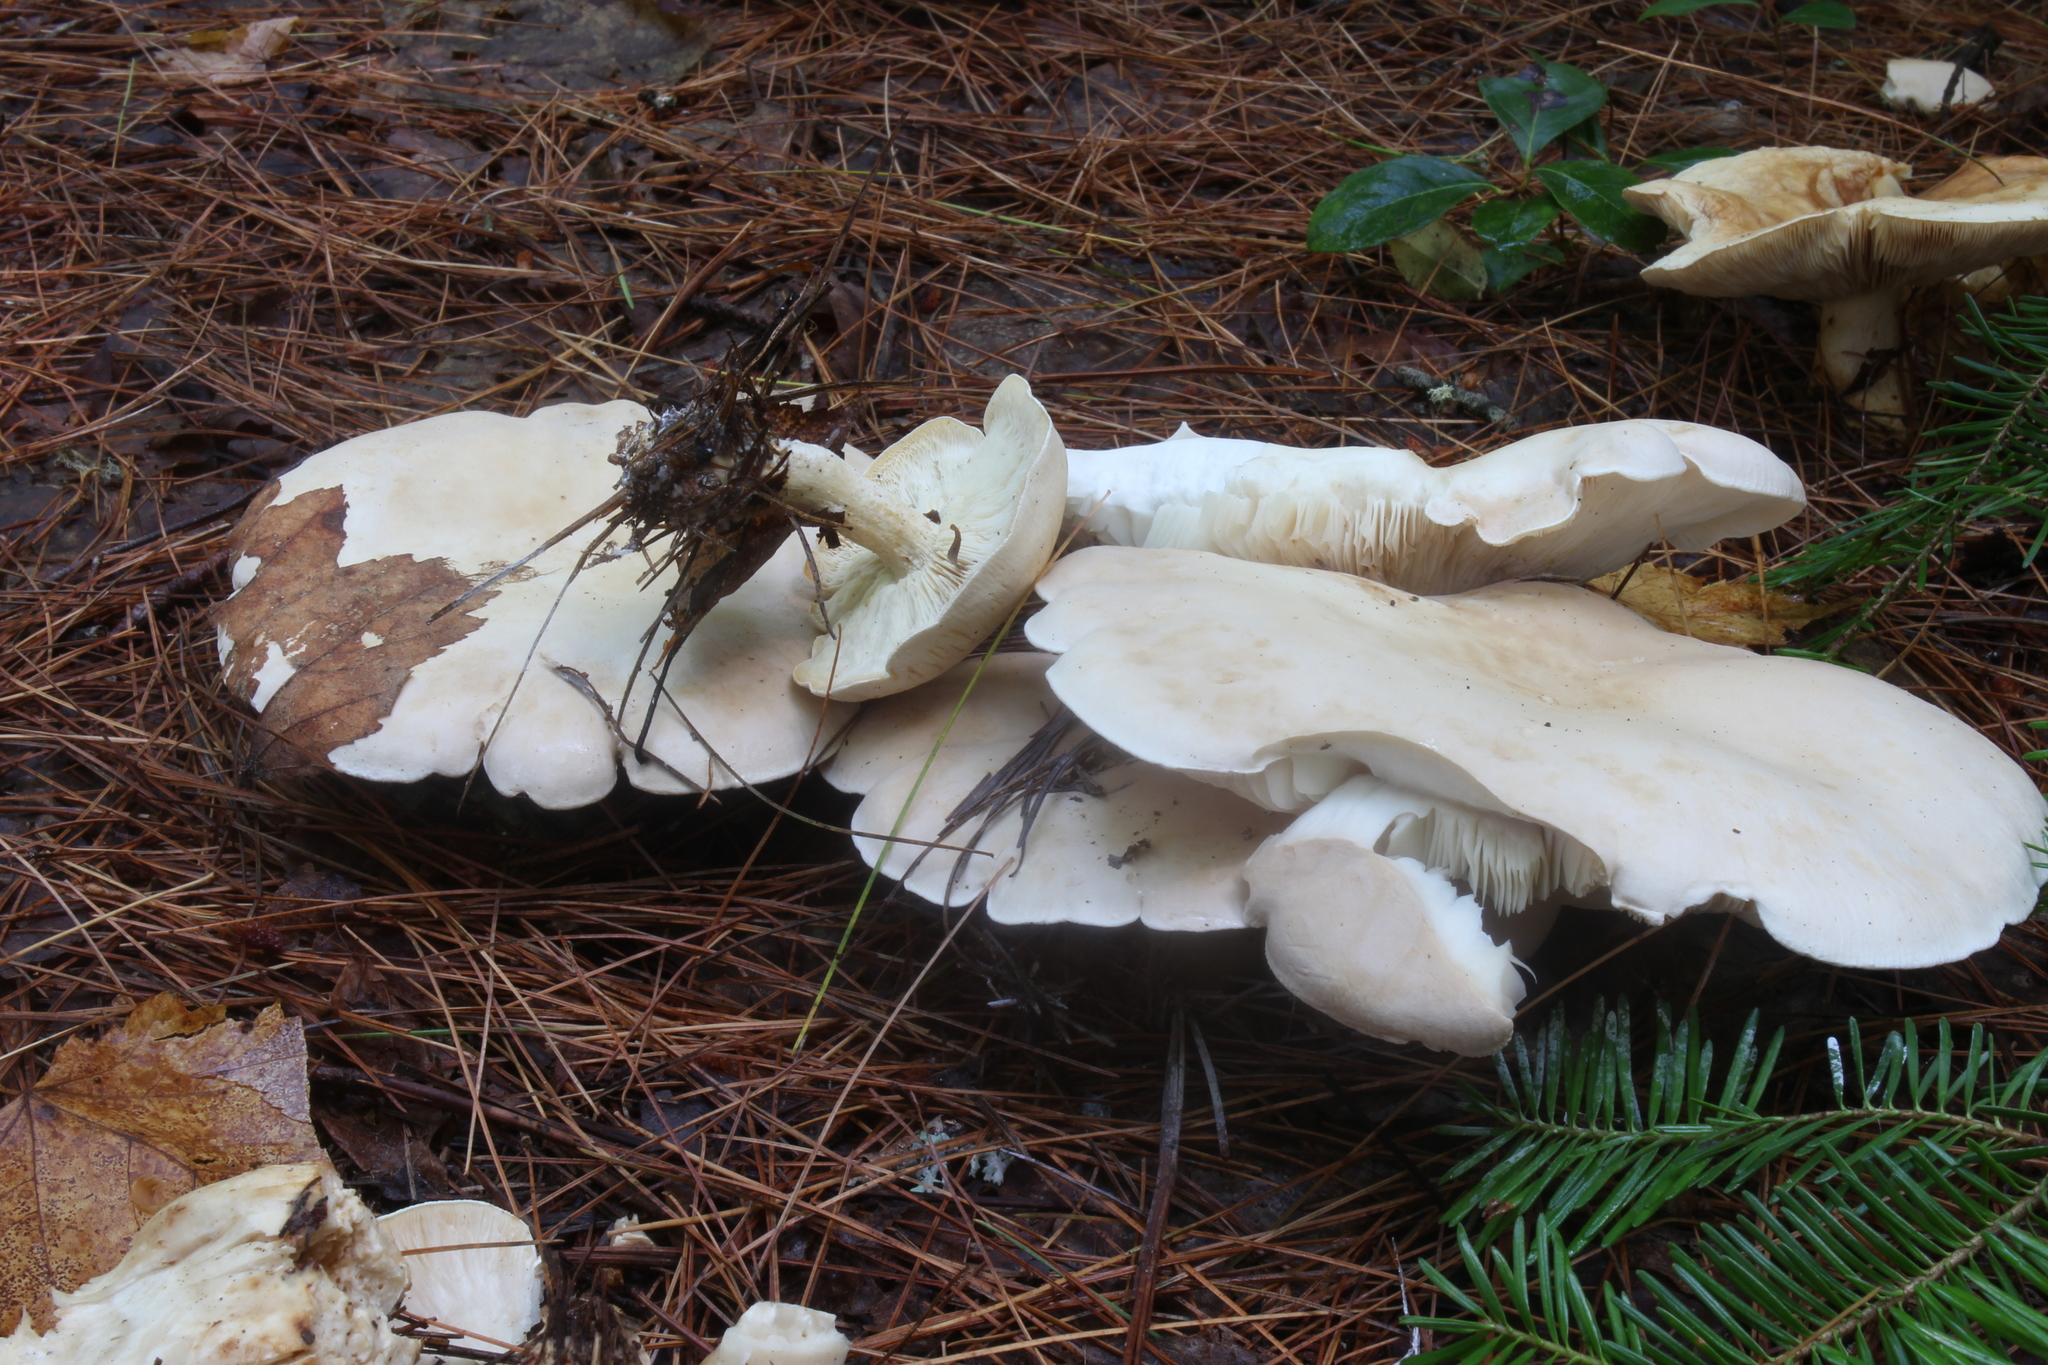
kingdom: Fungi
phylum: Basidiomycota
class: Agaricomycetes
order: Agaricales
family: Tricholomataceae
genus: Leucopaxillus
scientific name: Leucopaxillus albissimus
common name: Large white leucopax
